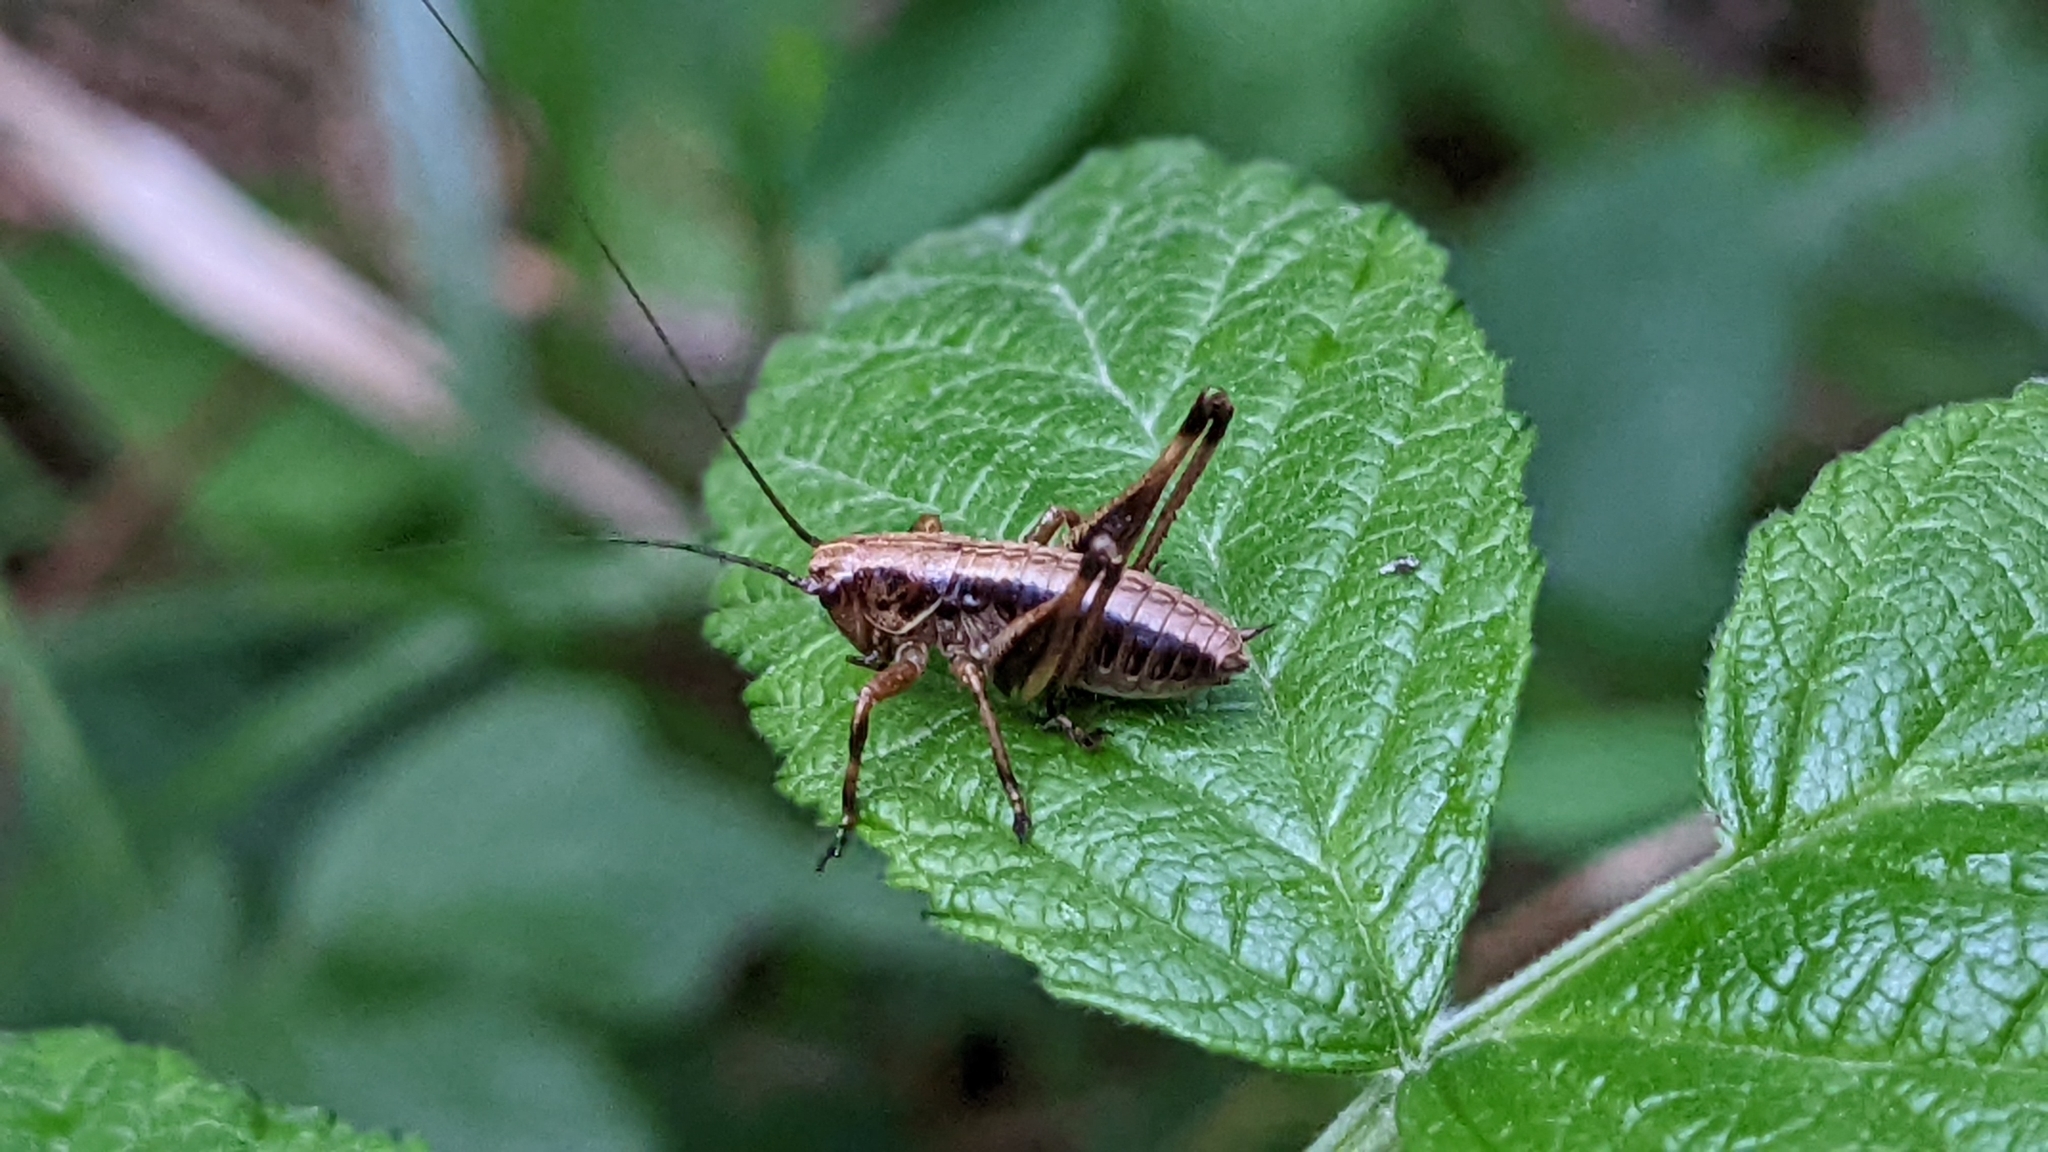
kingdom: Animalia
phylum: Arthropoda
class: Insecta
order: Orthoptera
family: Tettigoniidae
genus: Pholidoptera
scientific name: Pholidoptera griseoaptera
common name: Dark bush-cricket
